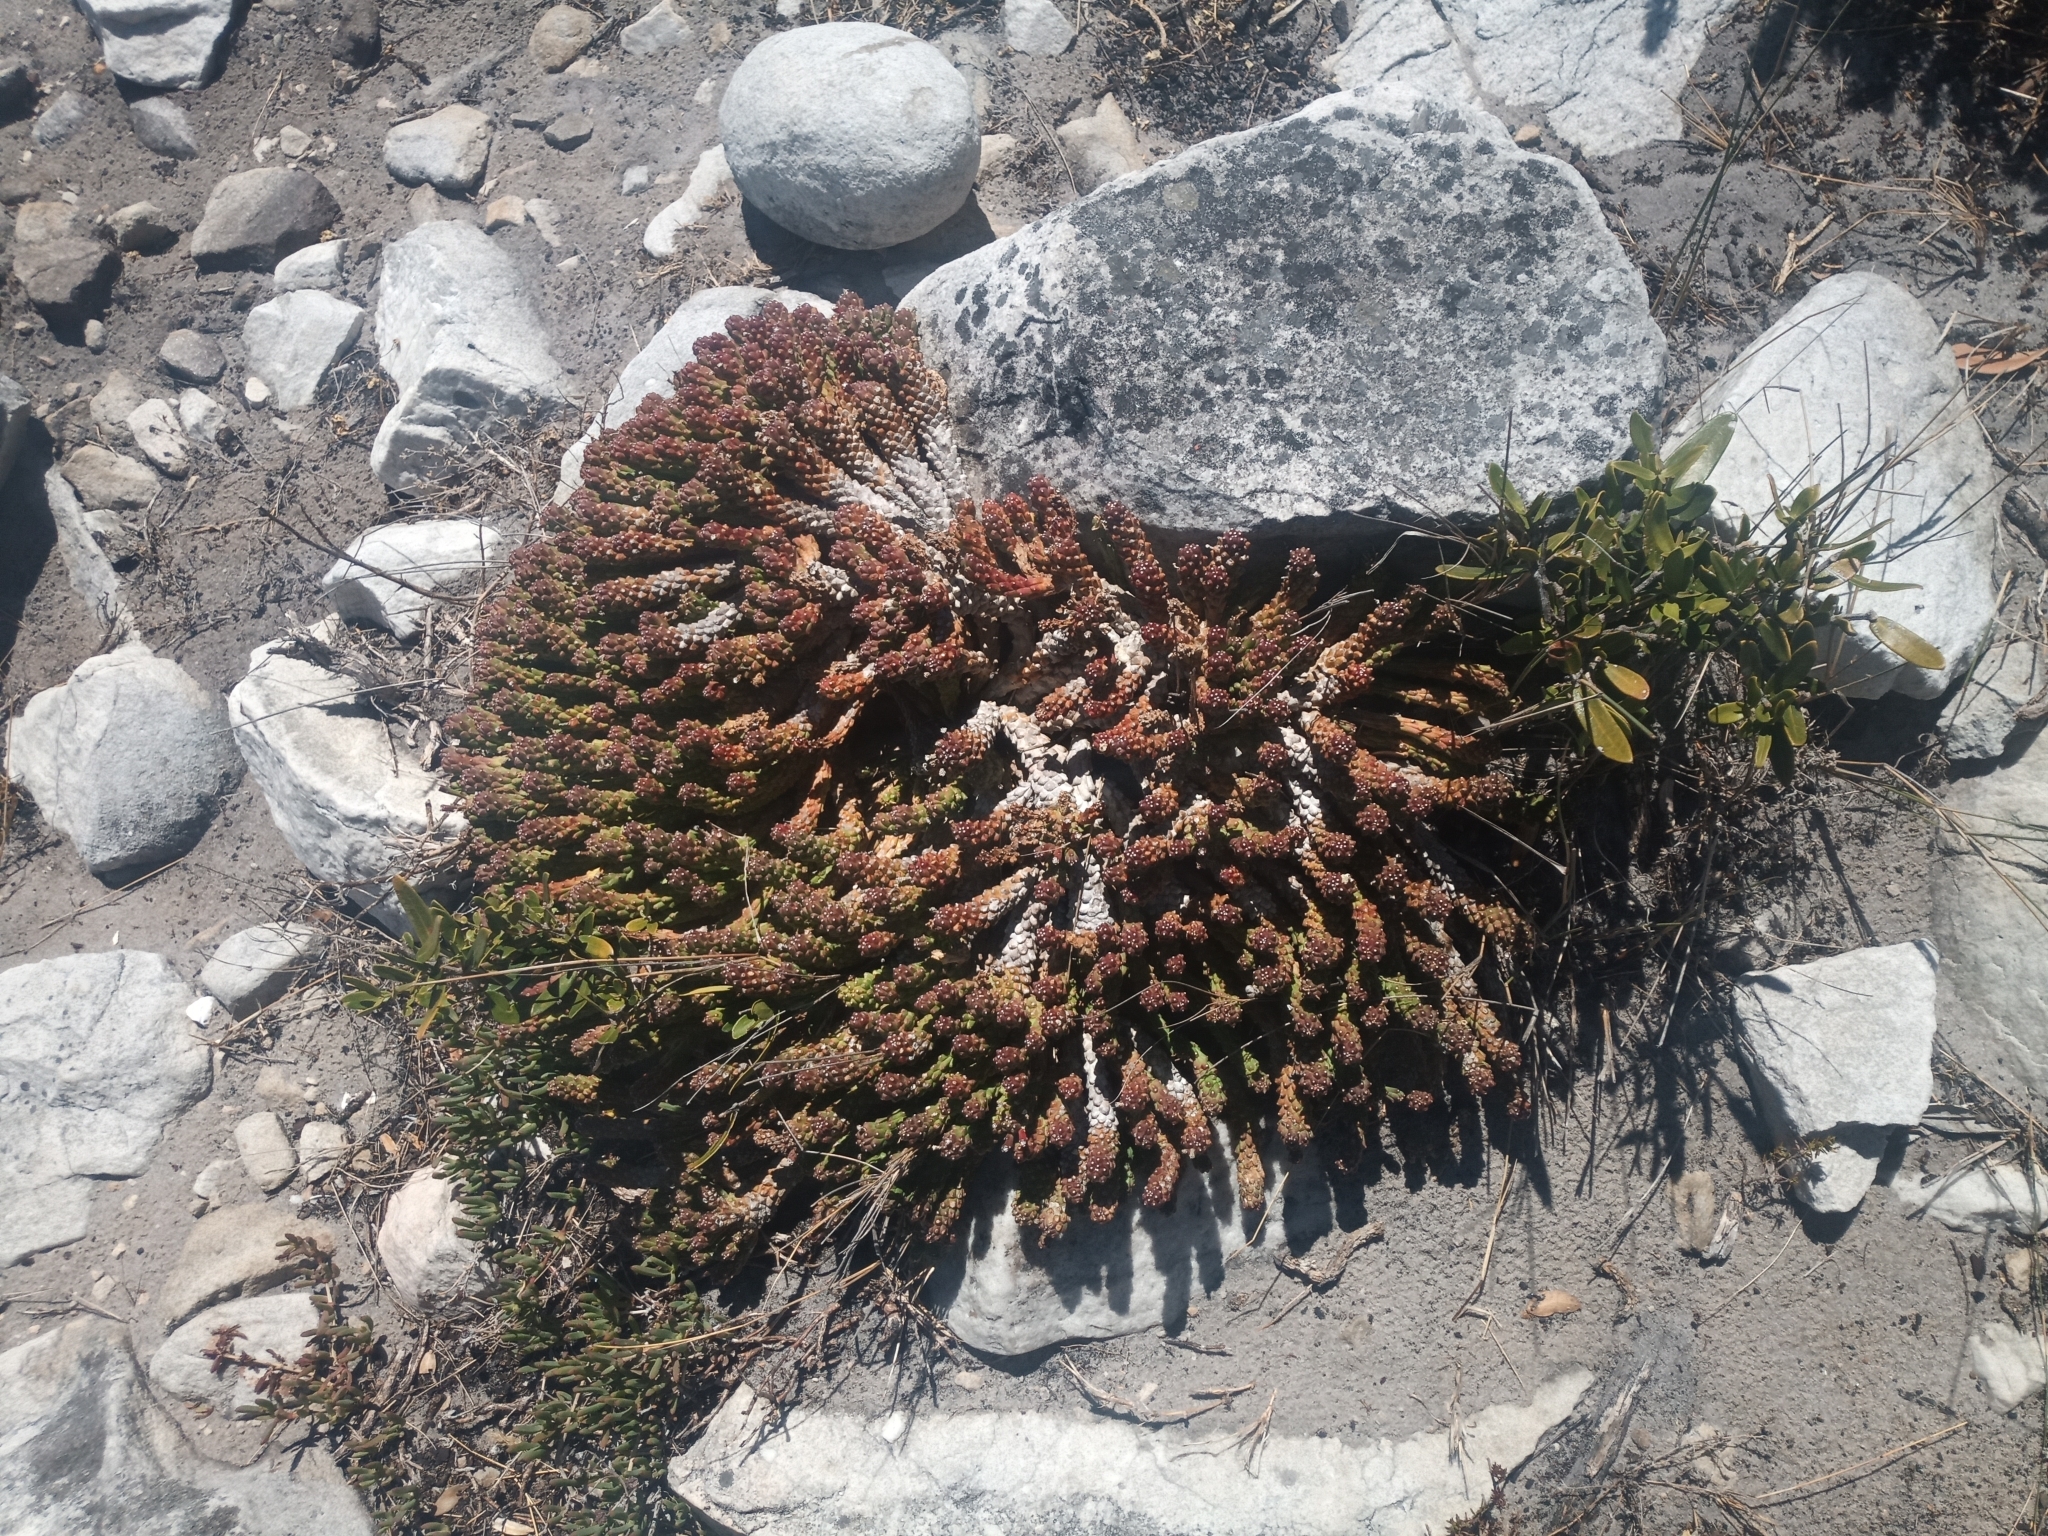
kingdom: Plantae
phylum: Tracheophyta
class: Magnoliopsida
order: Malpighiales
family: Euphorbiaceae
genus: Euphorbia
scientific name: Euphorbia caput-medusae
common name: Medusa's-head
